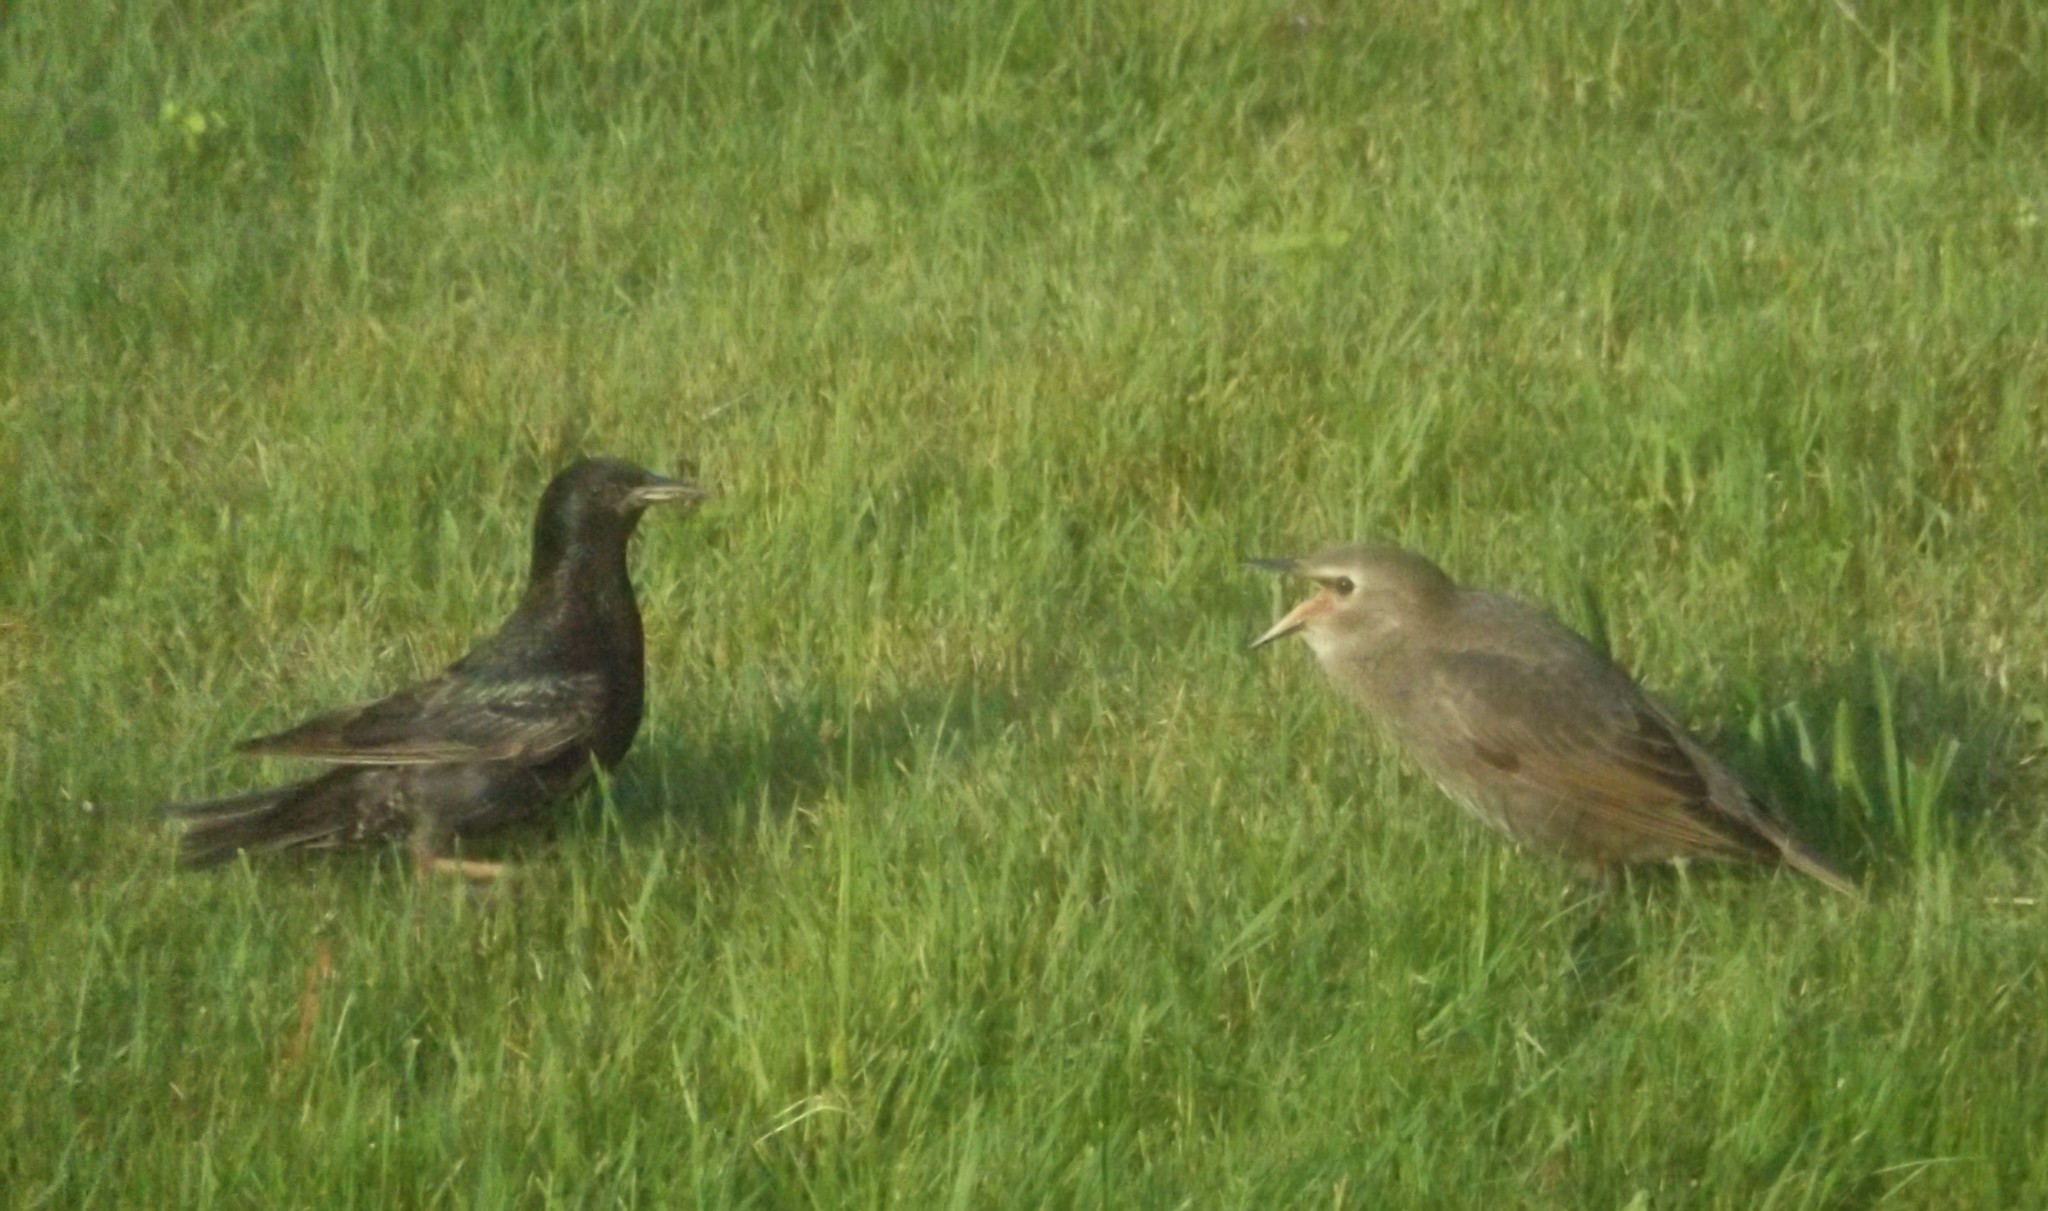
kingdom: Animalia
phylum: Chordata
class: Aves
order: Passeriformes
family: Sturnidae
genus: Sturnus
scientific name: Sturnus vulgaris
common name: Common starling
